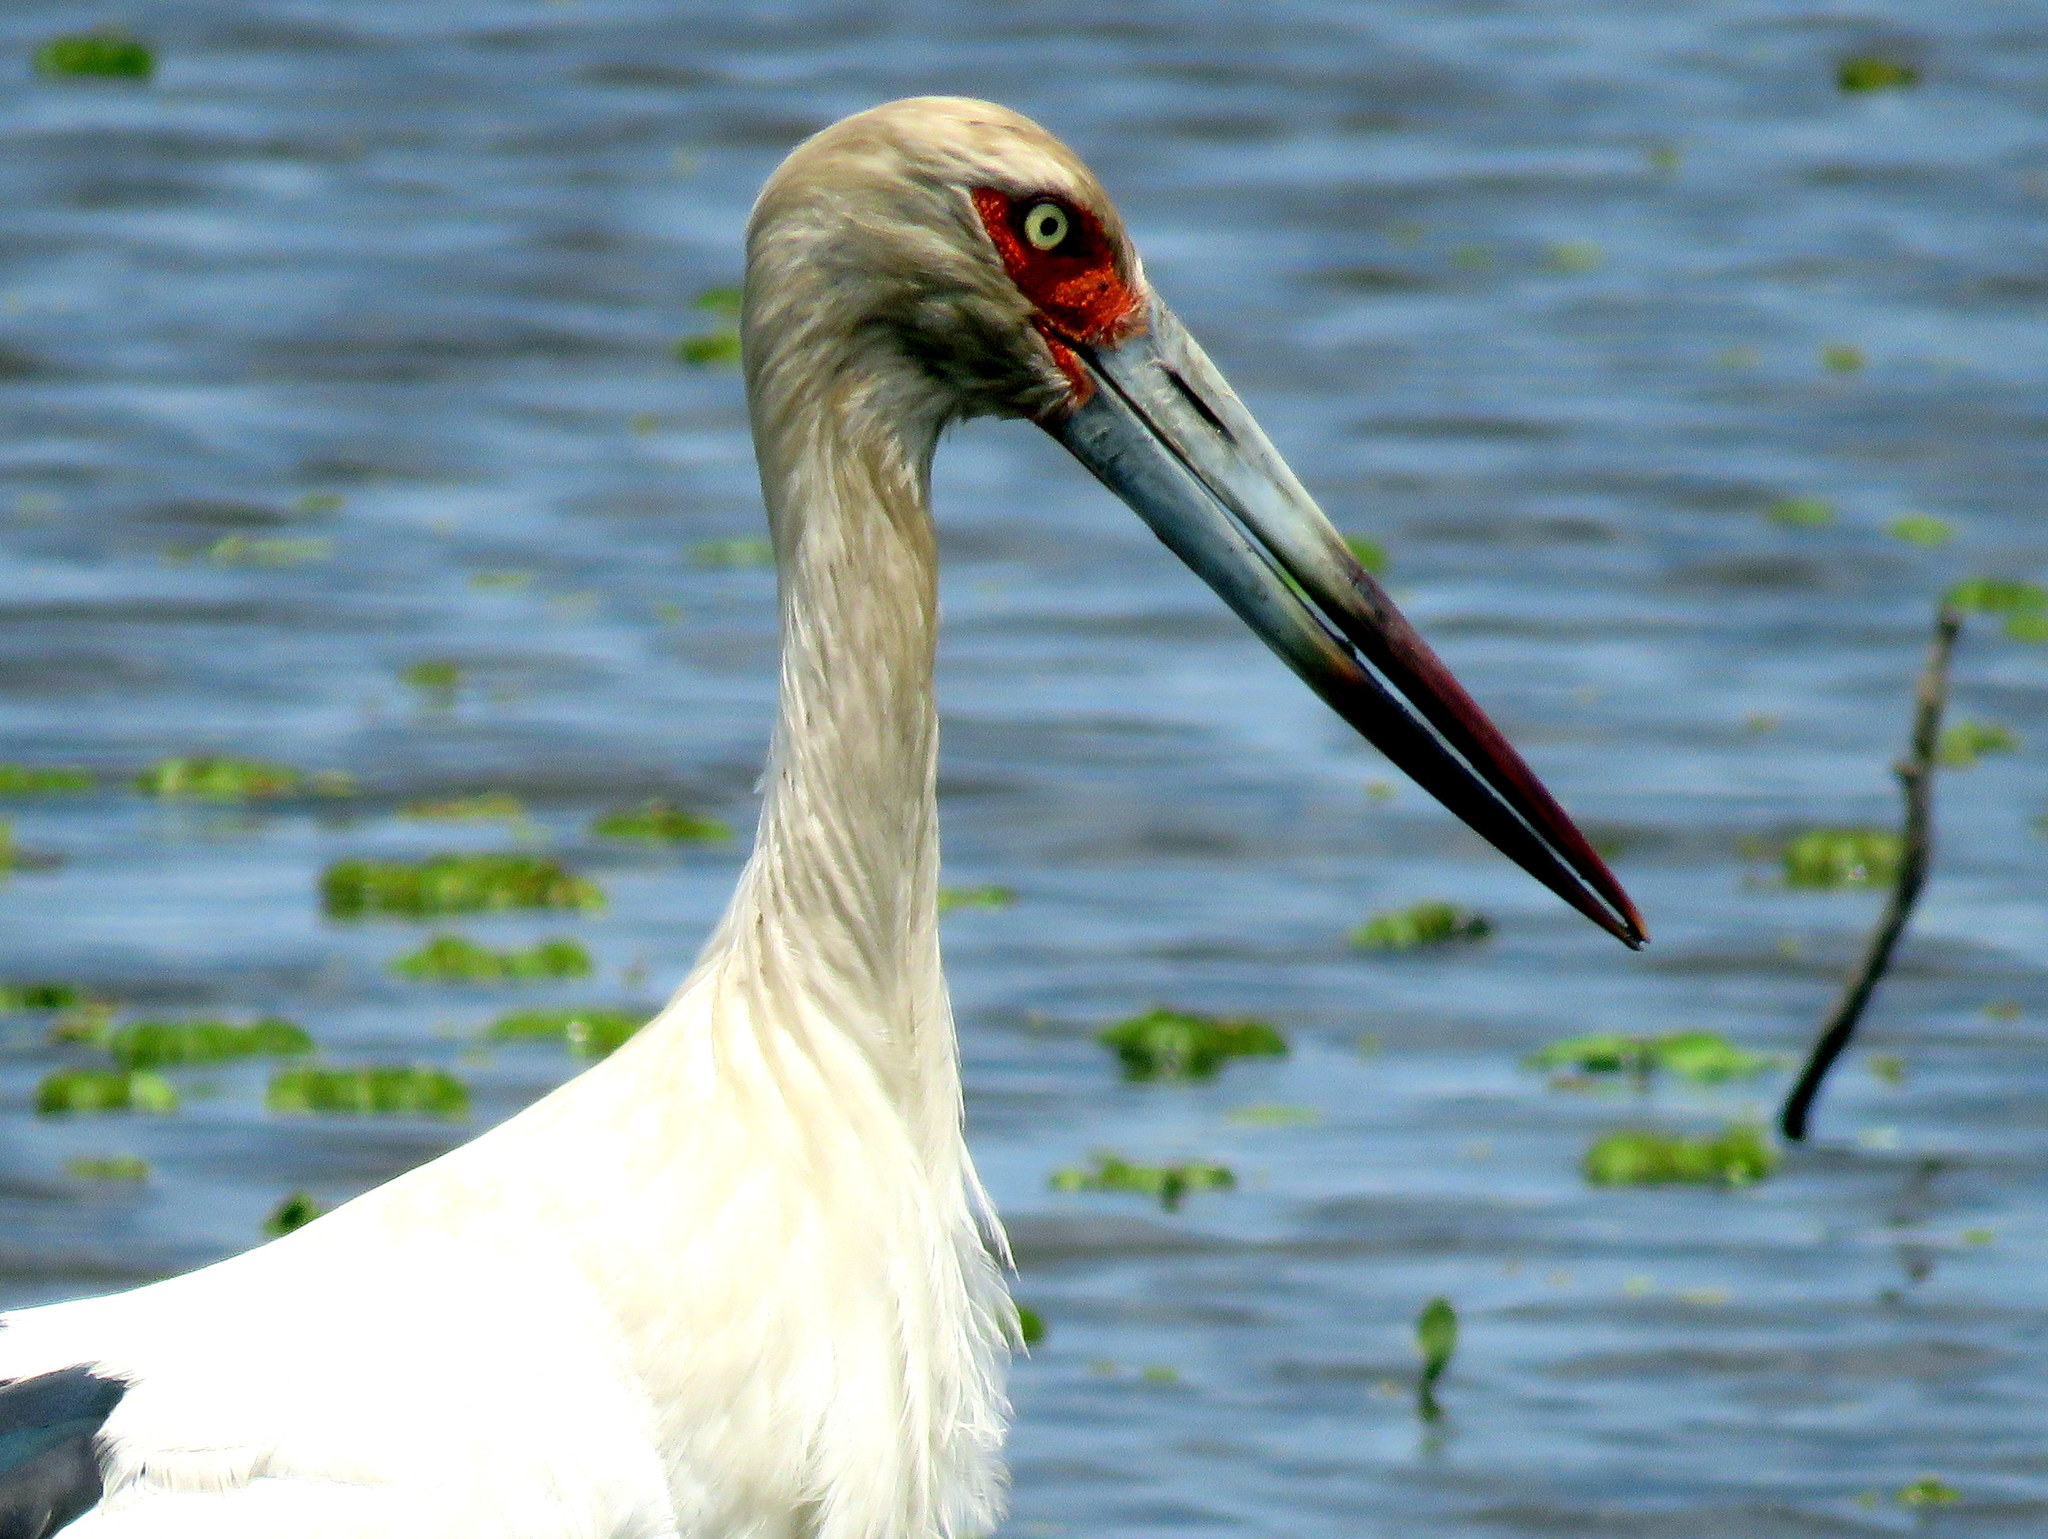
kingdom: Animalia
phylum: Chordata
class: Aves
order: Ciconiiformes
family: Ciconiidae
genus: Ciconia
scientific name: Ciconia maguari
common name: Maguari stork
